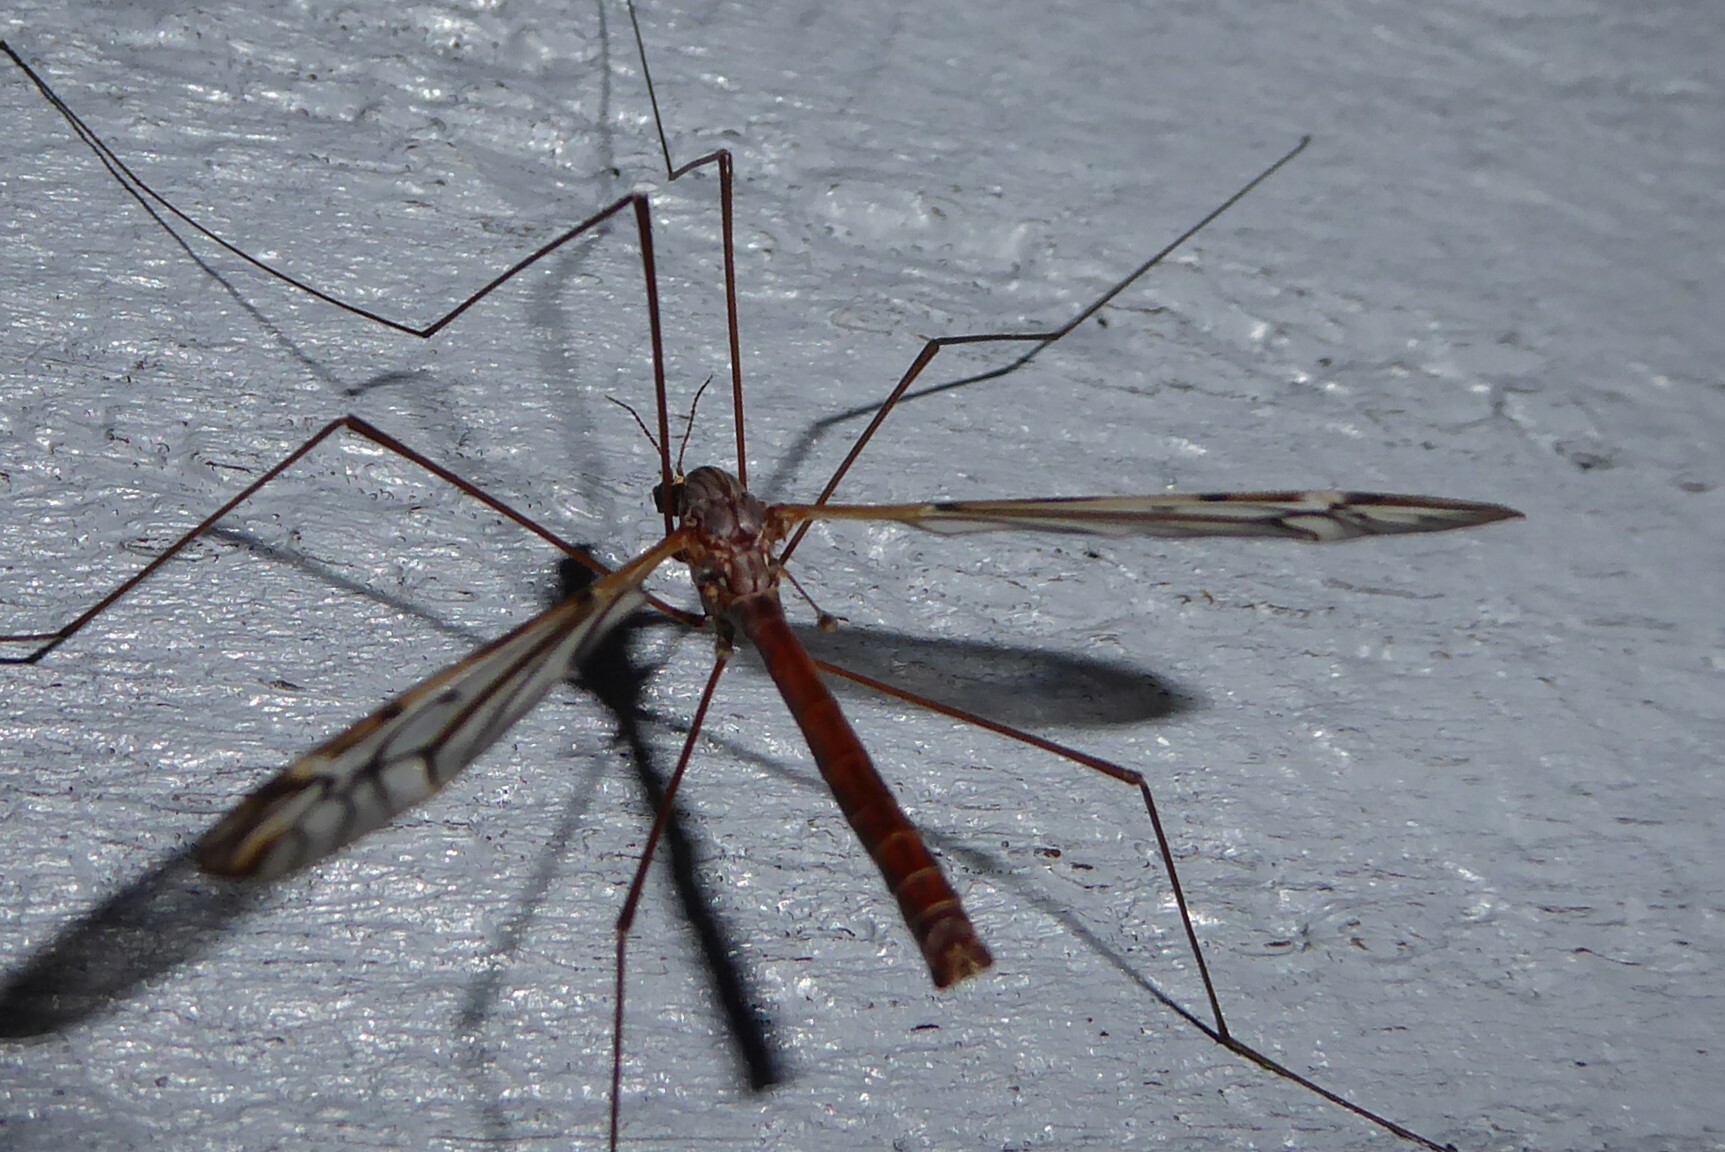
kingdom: Animalia
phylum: Arthropoda
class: Insecta
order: Diptera
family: Tipulidae
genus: Zelandotipula
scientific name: Zelandotipula novarae
